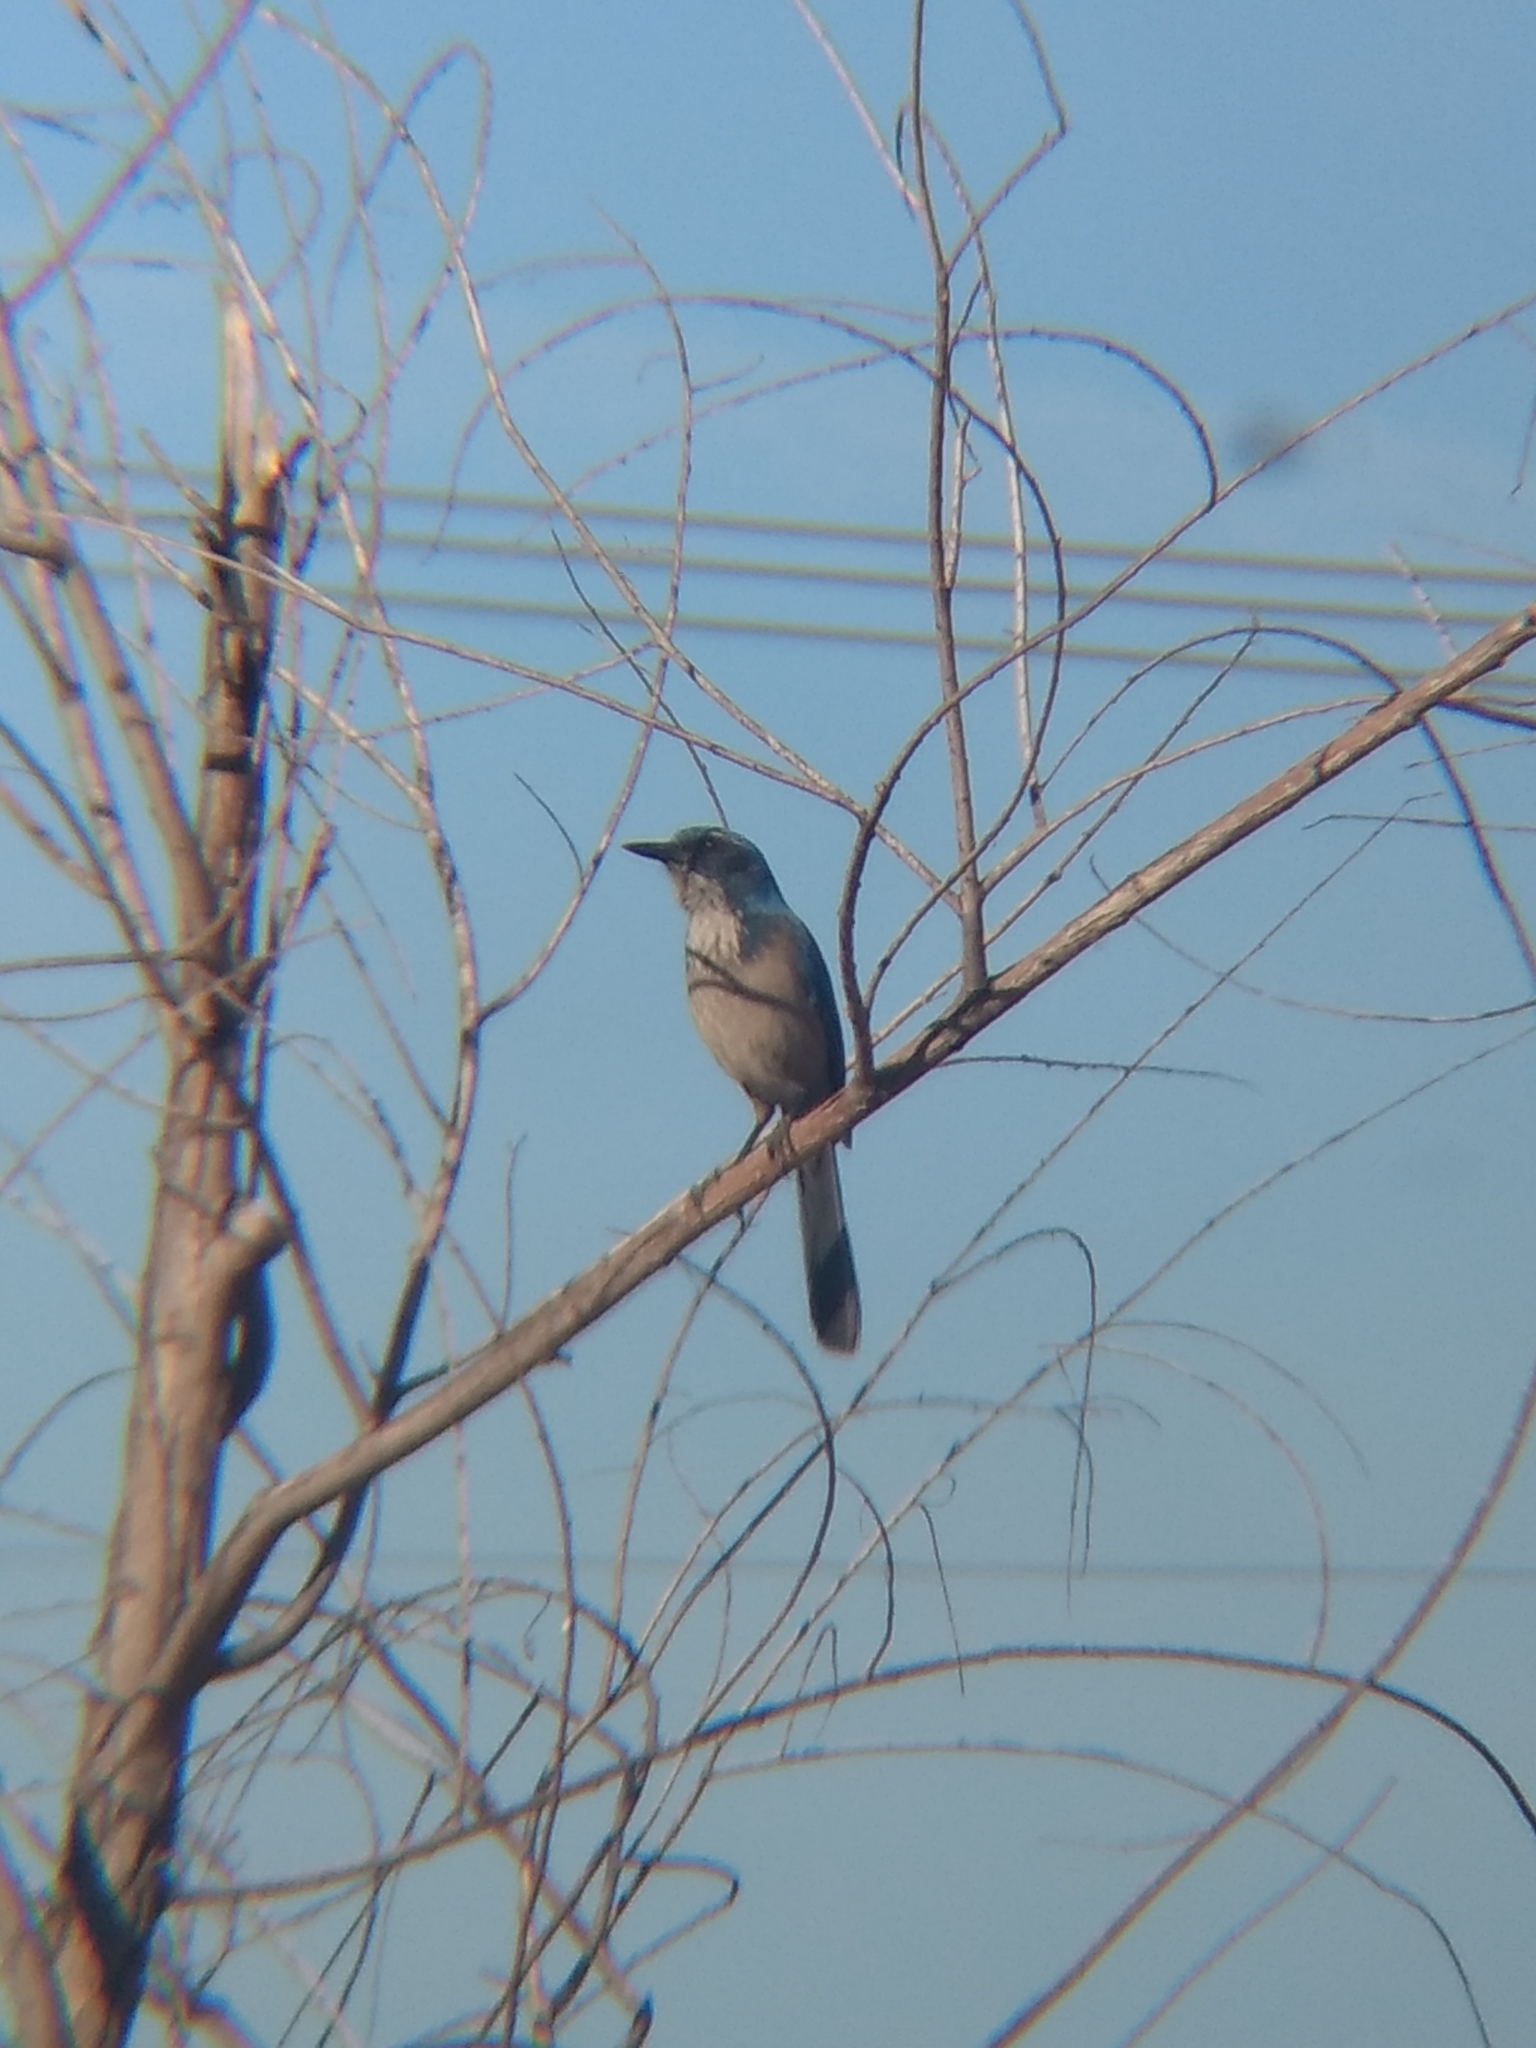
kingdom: Animalia
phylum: Chordata
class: Aves
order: Passeriformes
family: Corvidae
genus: Aphelocoma
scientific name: Aphelocoma californica
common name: California scrub-jay
